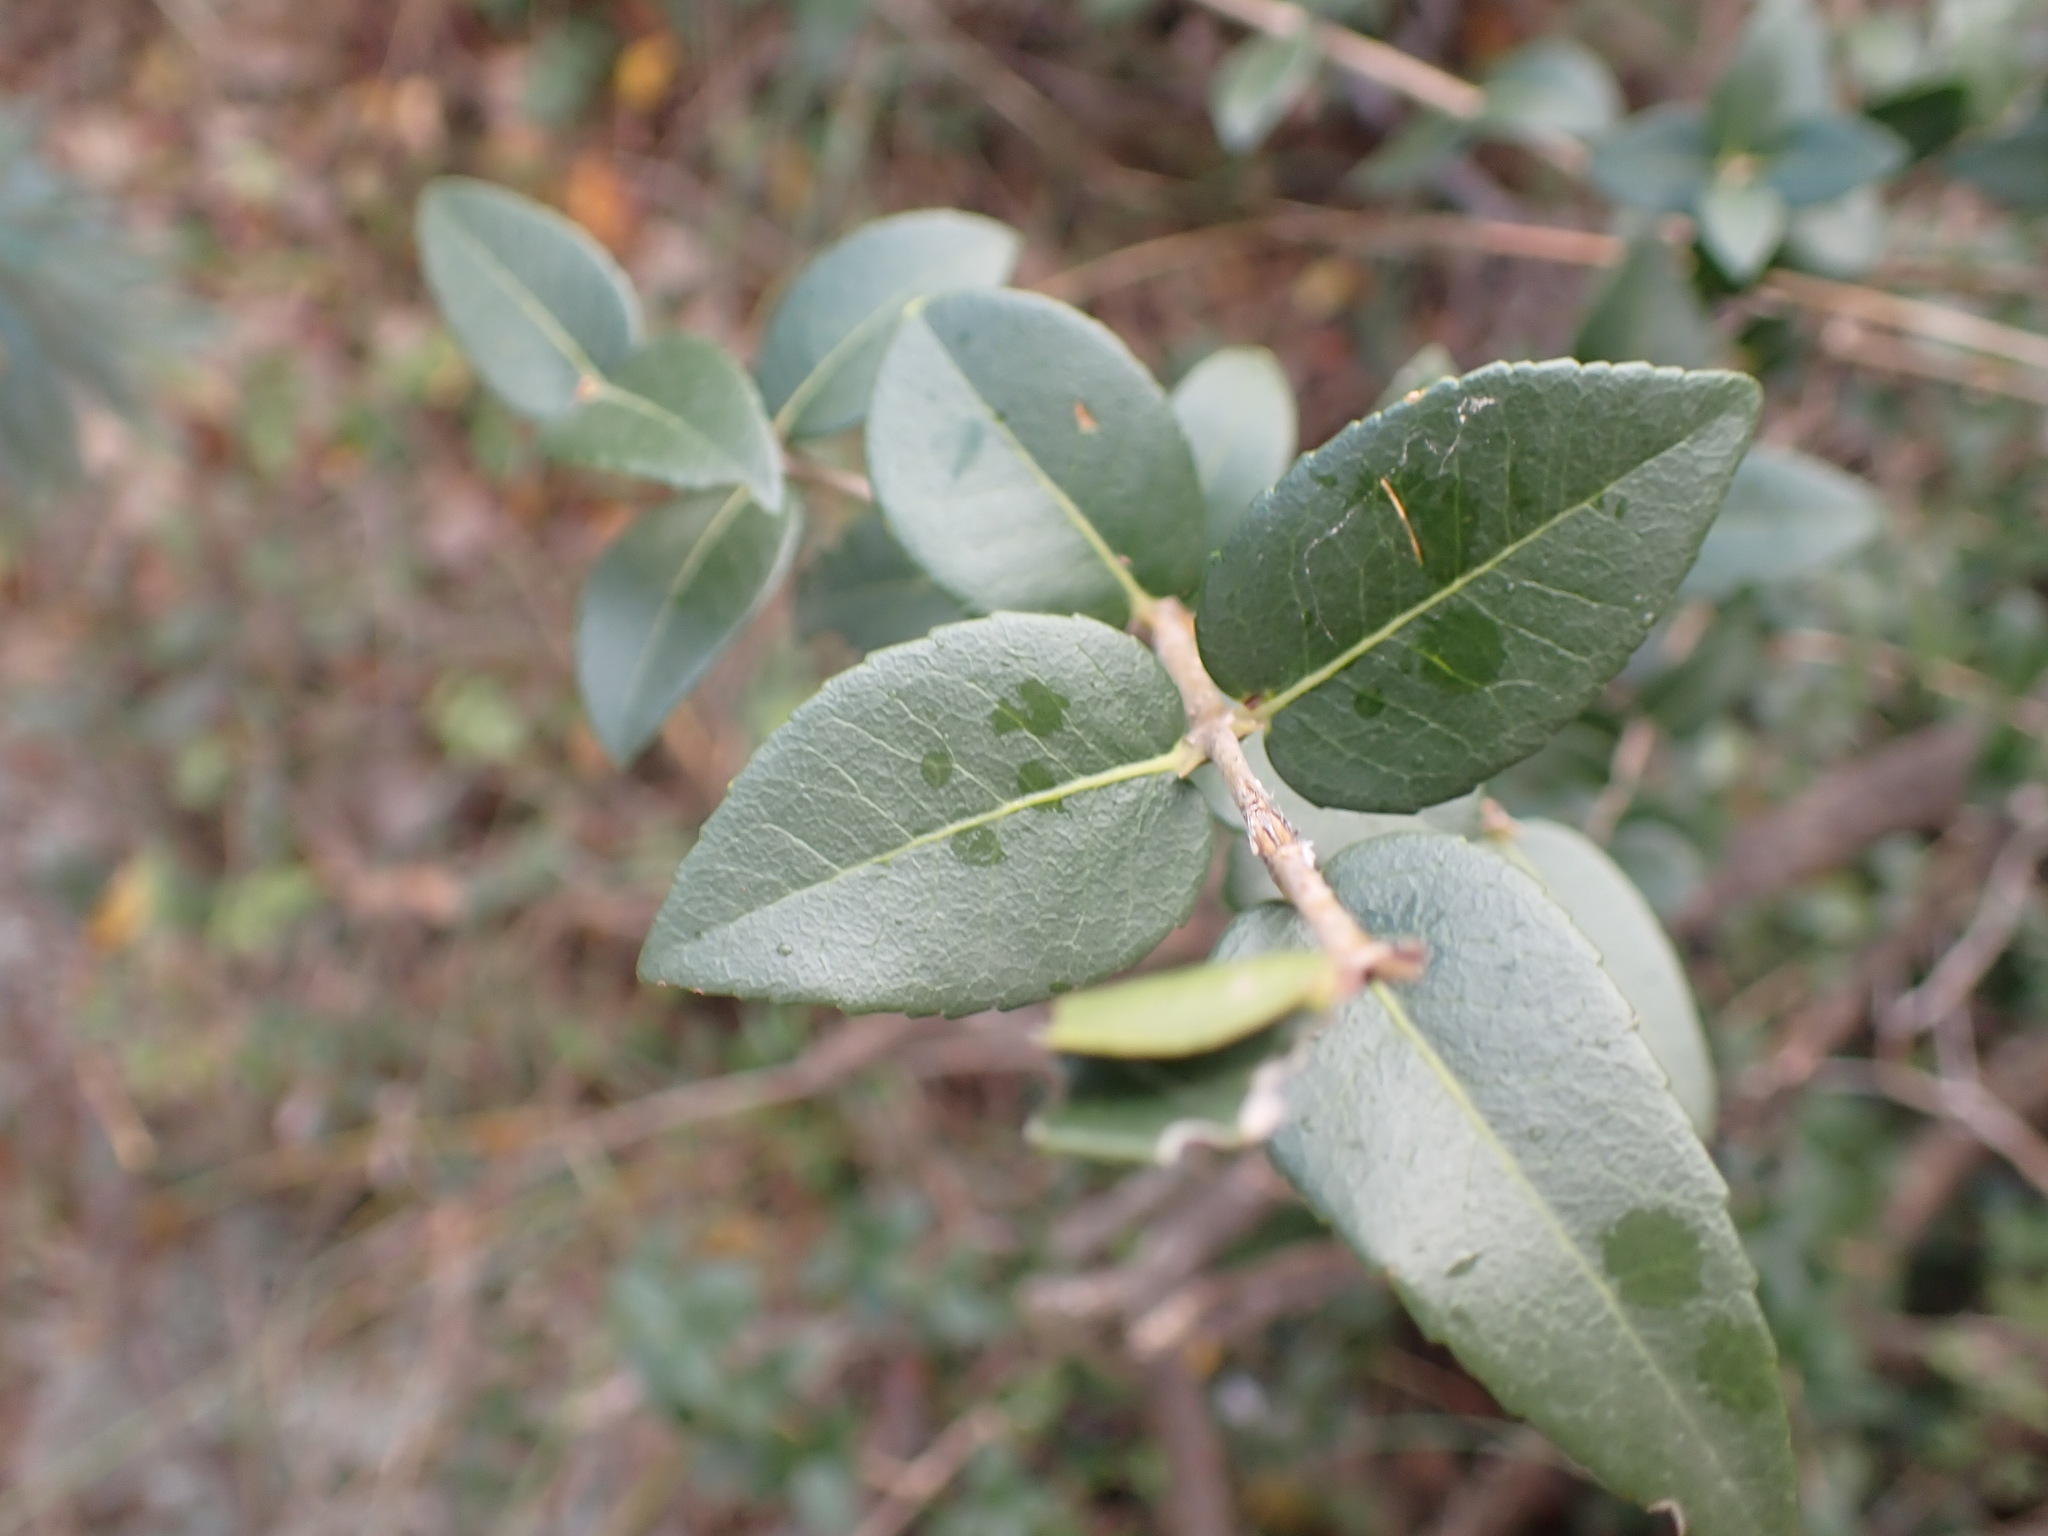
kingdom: Plantae
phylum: Tracheophyta
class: Magnoliopsida
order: Lamiales
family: Oleaceae
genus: Phillyrea
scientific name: Phillyrea latifolia
